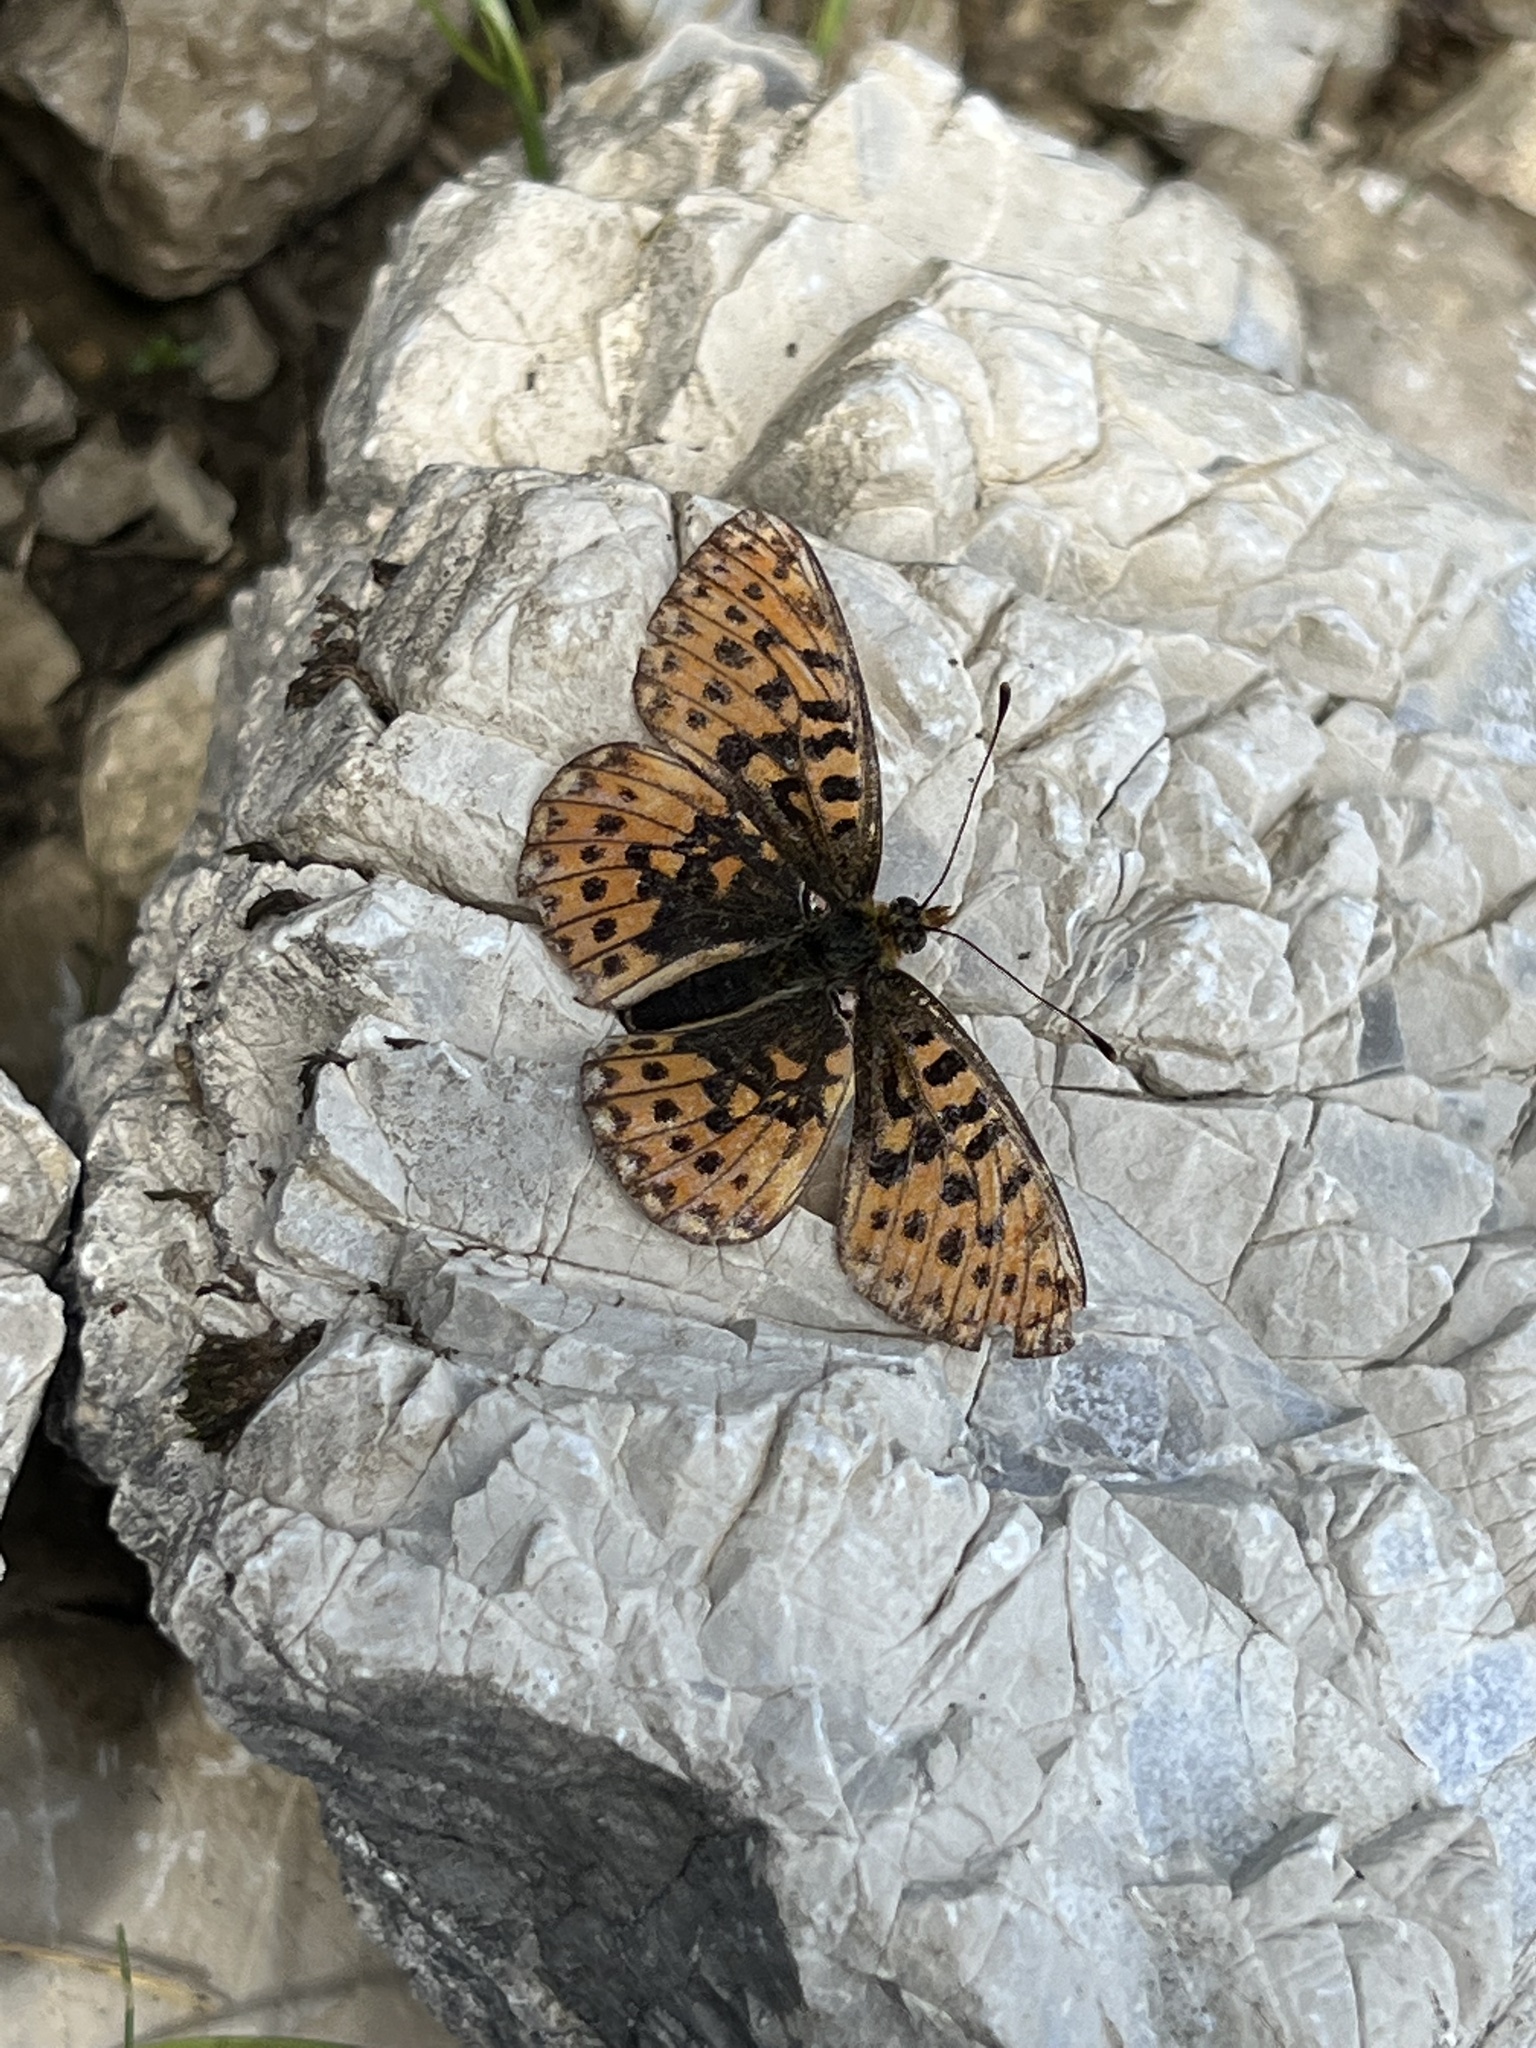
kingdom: Animalia
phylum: Arthropoda
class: Insecta
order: Lepidoptera
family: Nymphalidae
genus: Clossiana
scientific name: Clossiana euphrosyne
